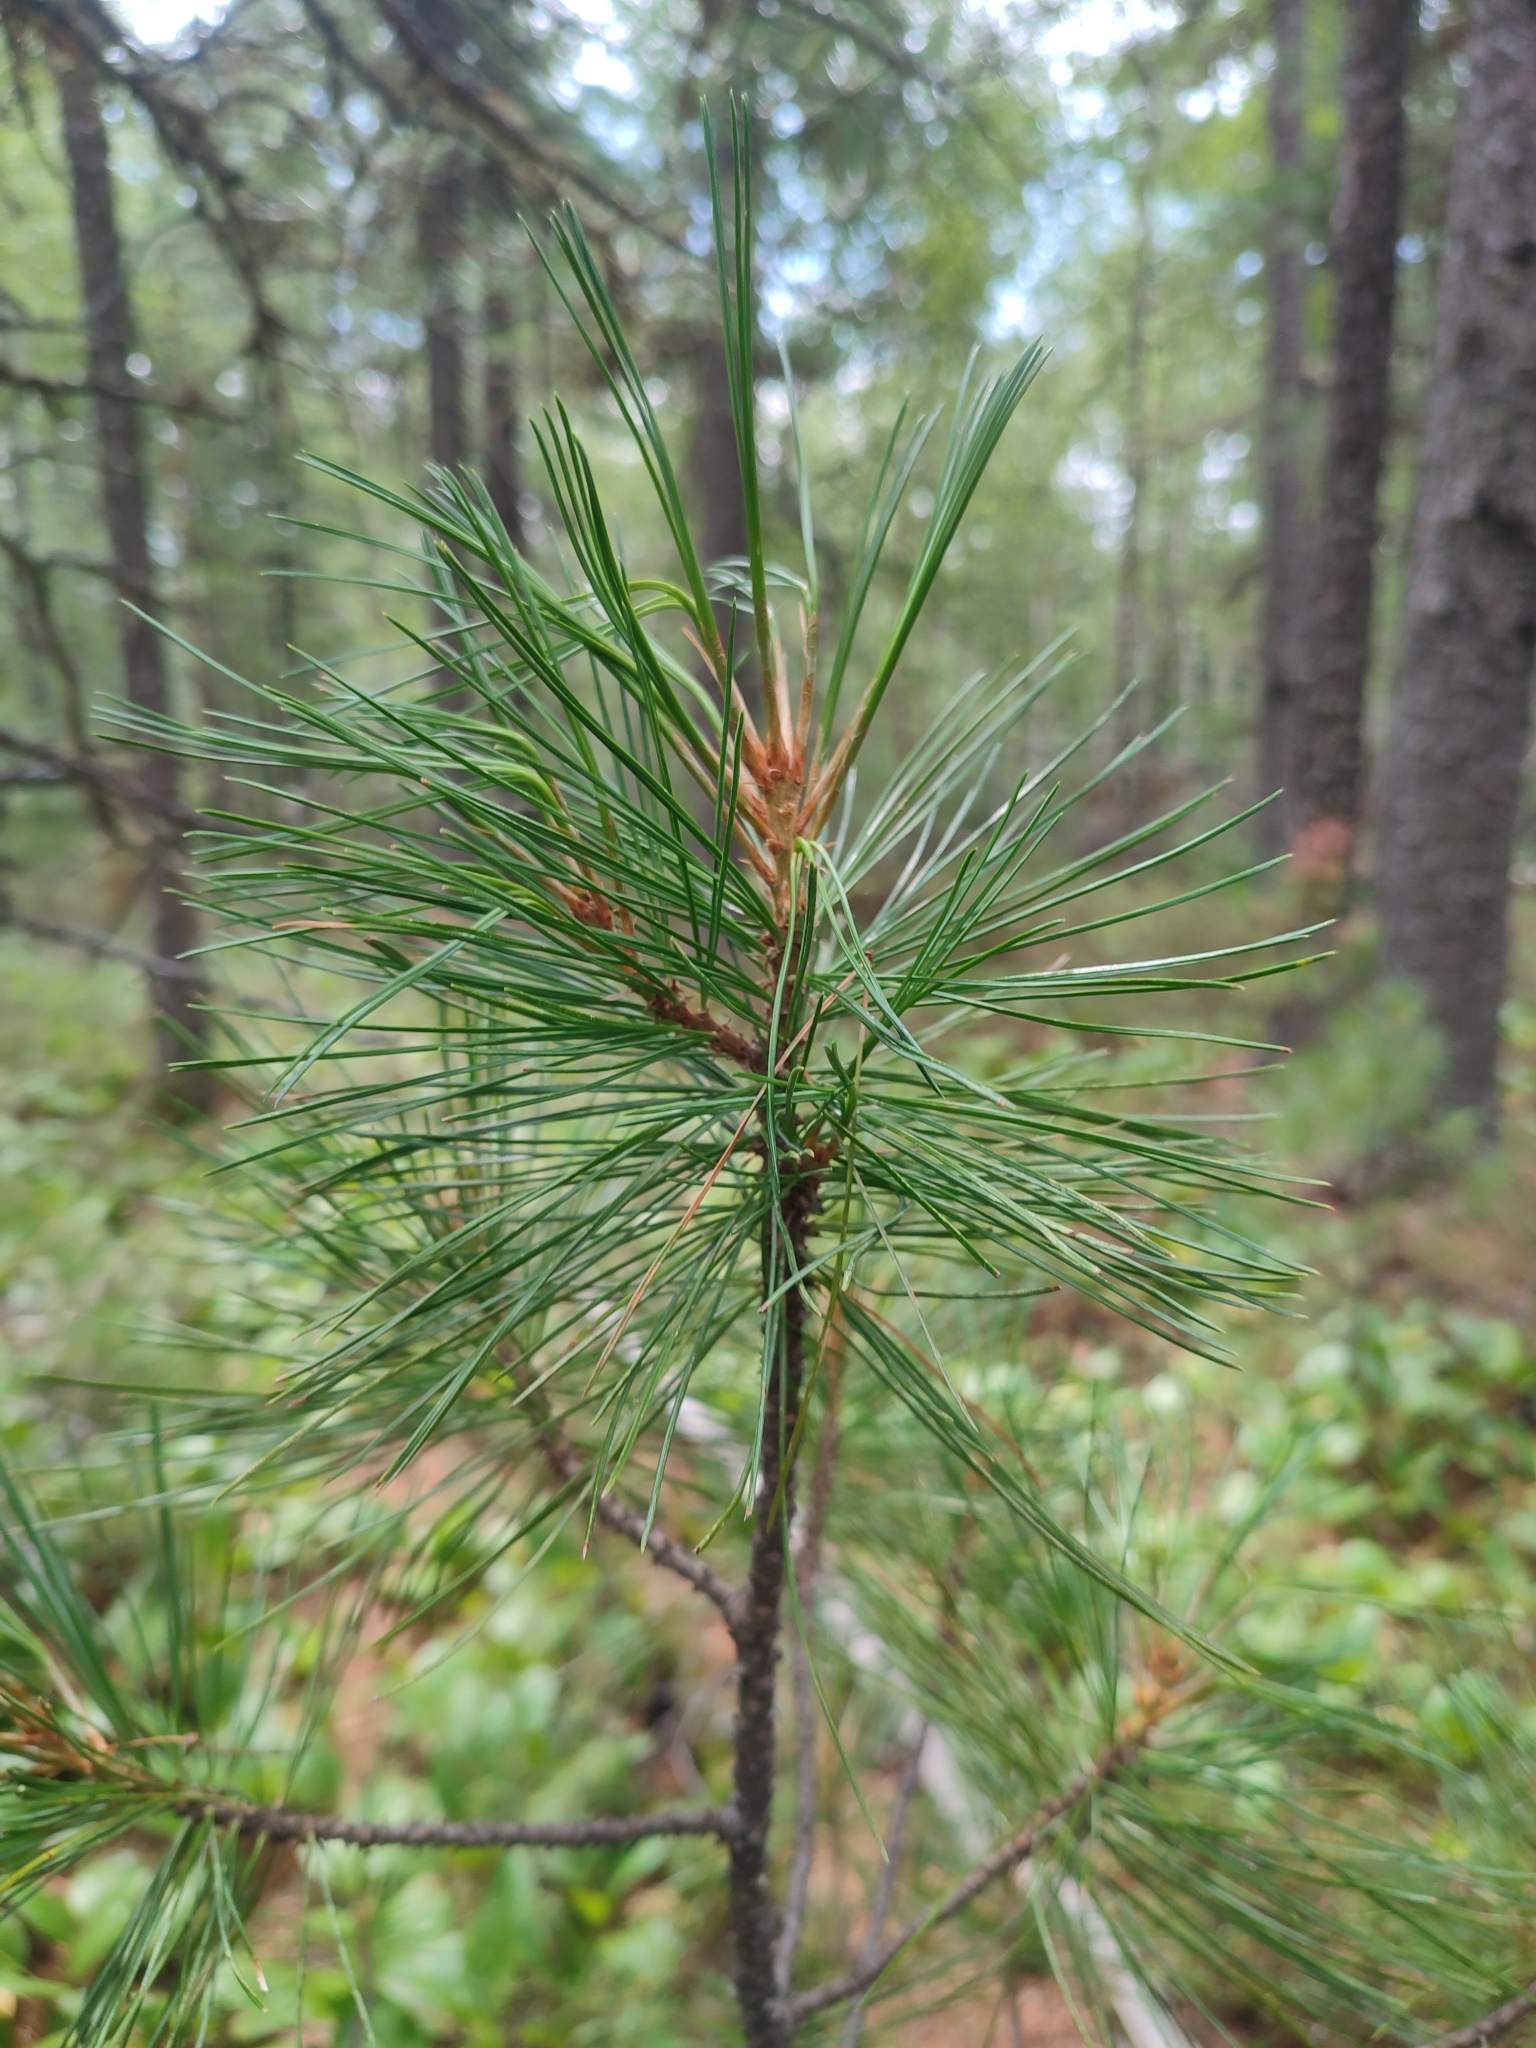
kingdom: Plantae
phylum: Tracheophyta
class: Pinopsida
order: Pinales
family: Pinaceae
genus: Pinus
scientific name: Pinus sibirica
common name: Siberian pine
